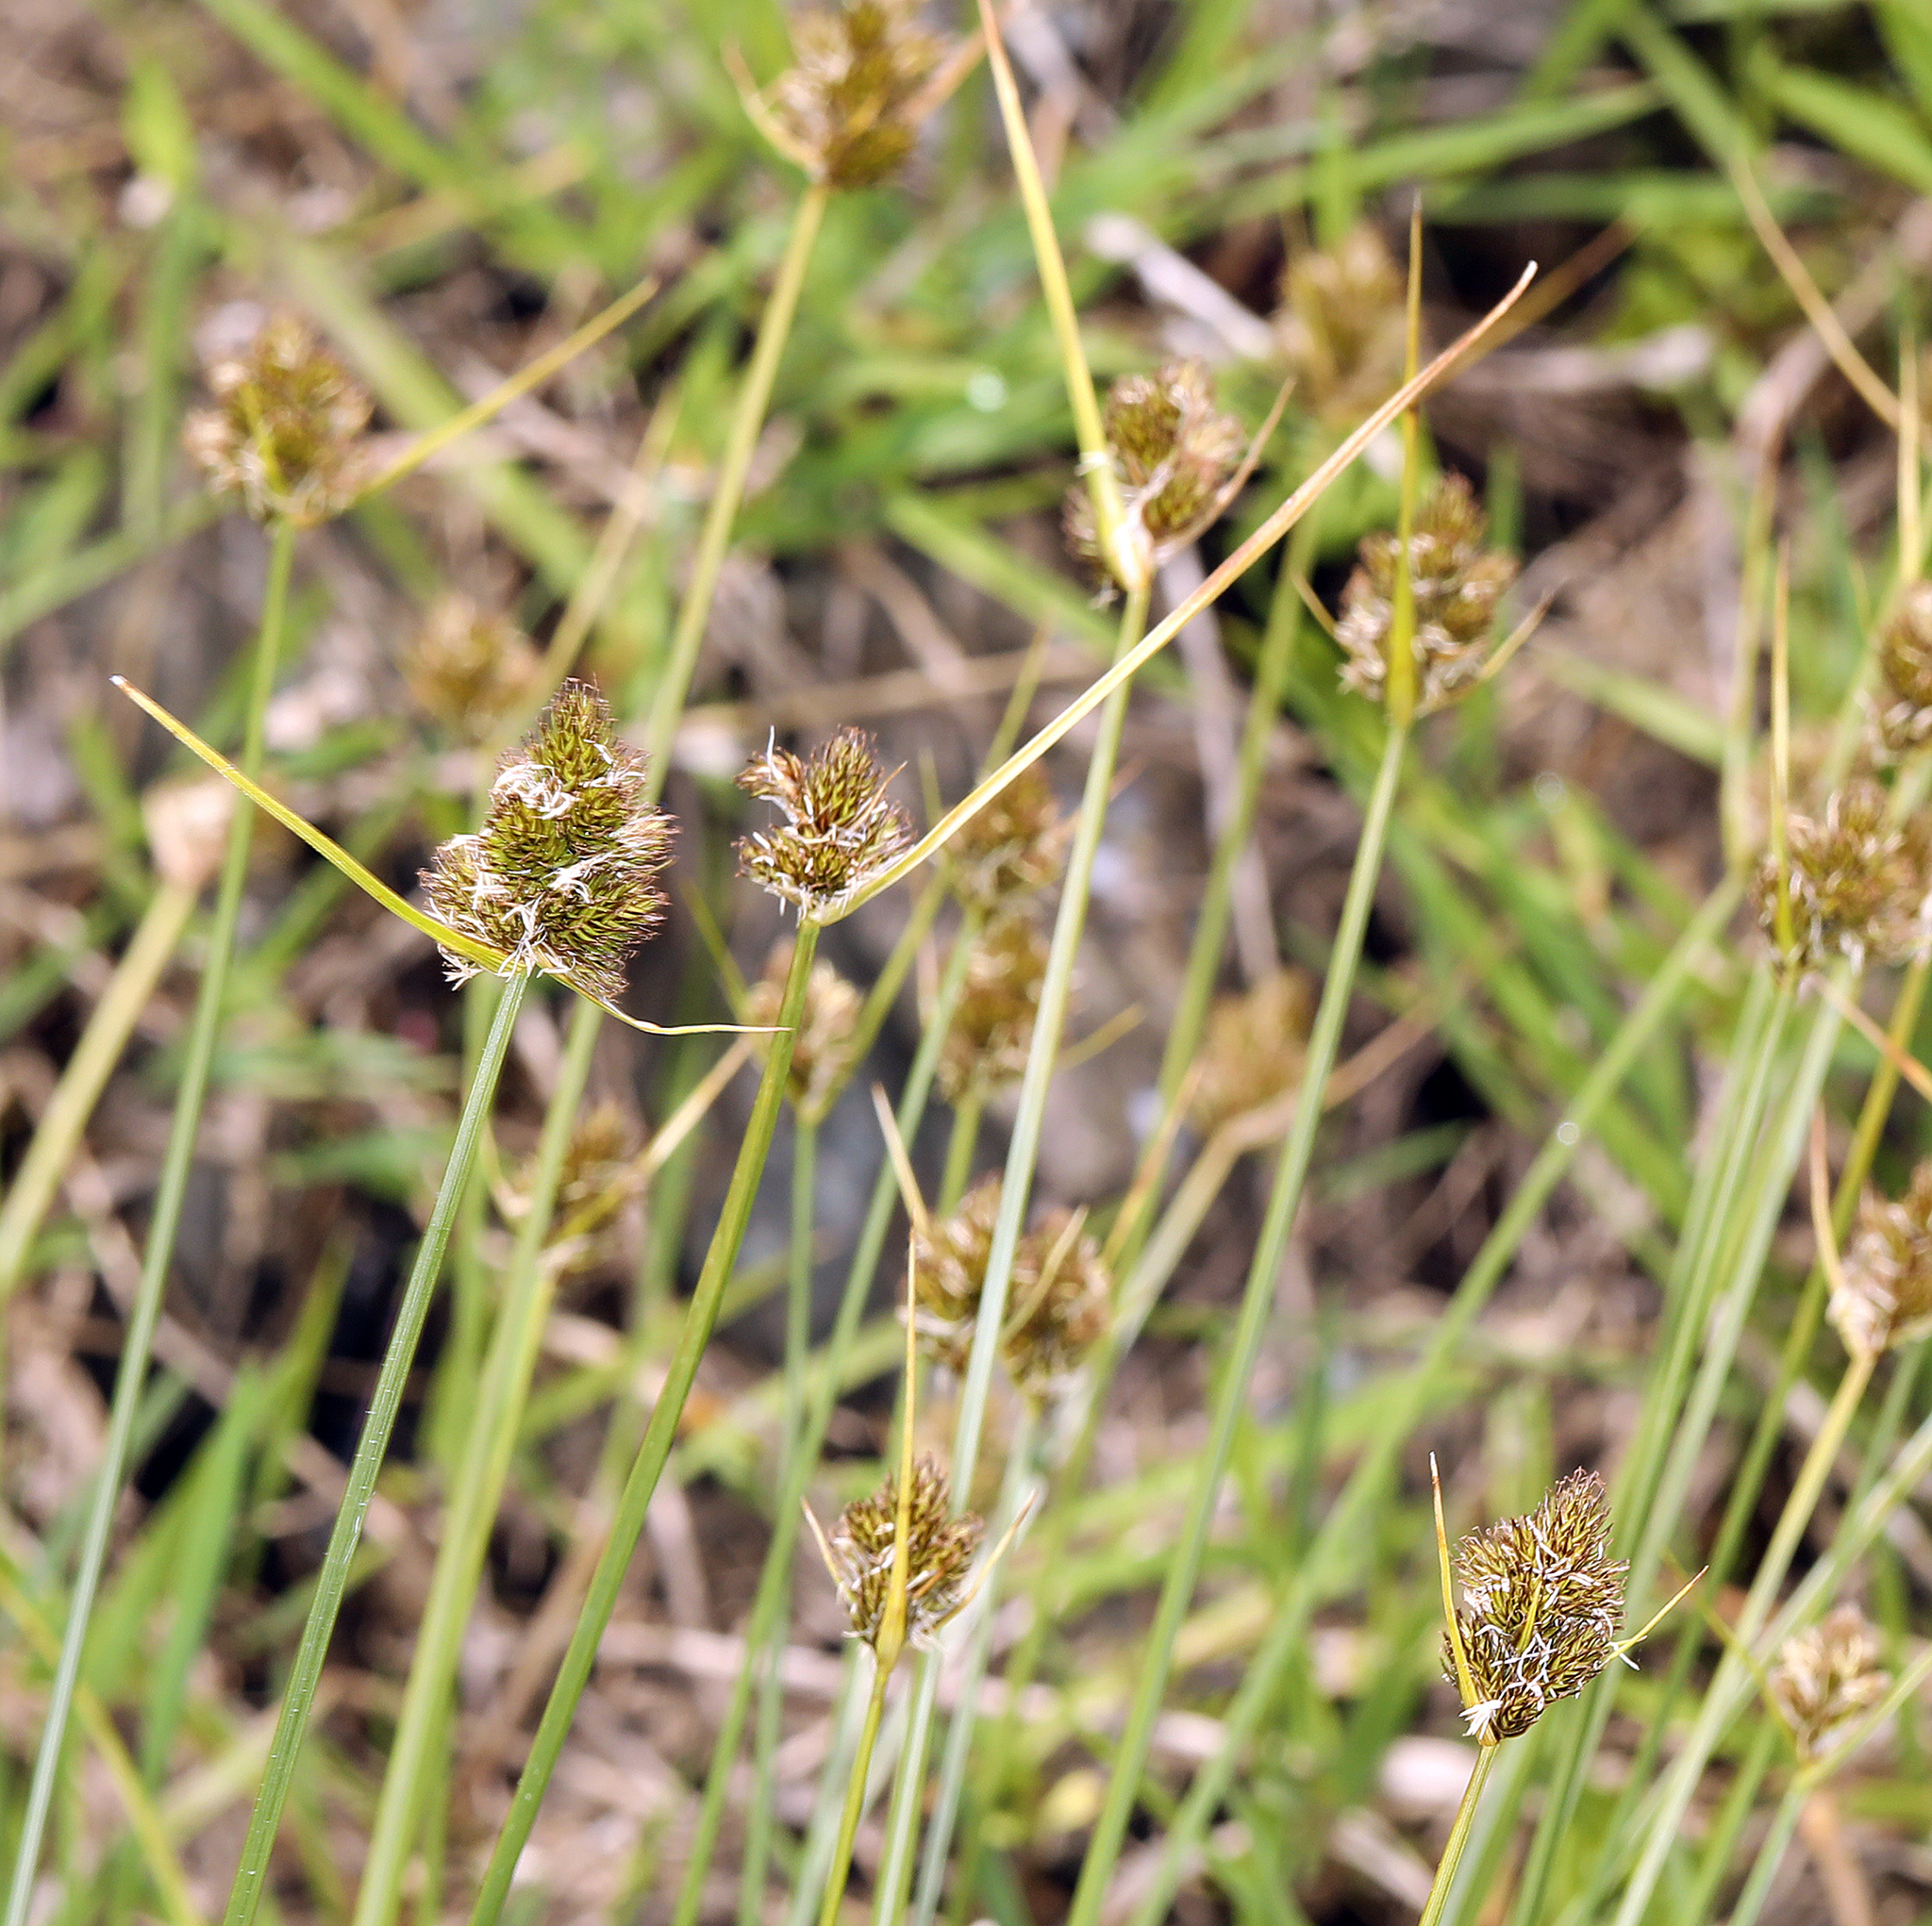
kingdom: Plantae
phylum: Tracheophyta
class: Liliopsida
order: Poales
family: Cyperaceae
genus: Carex
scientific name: Carex athrostachya
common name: Slenderbeak sedge
